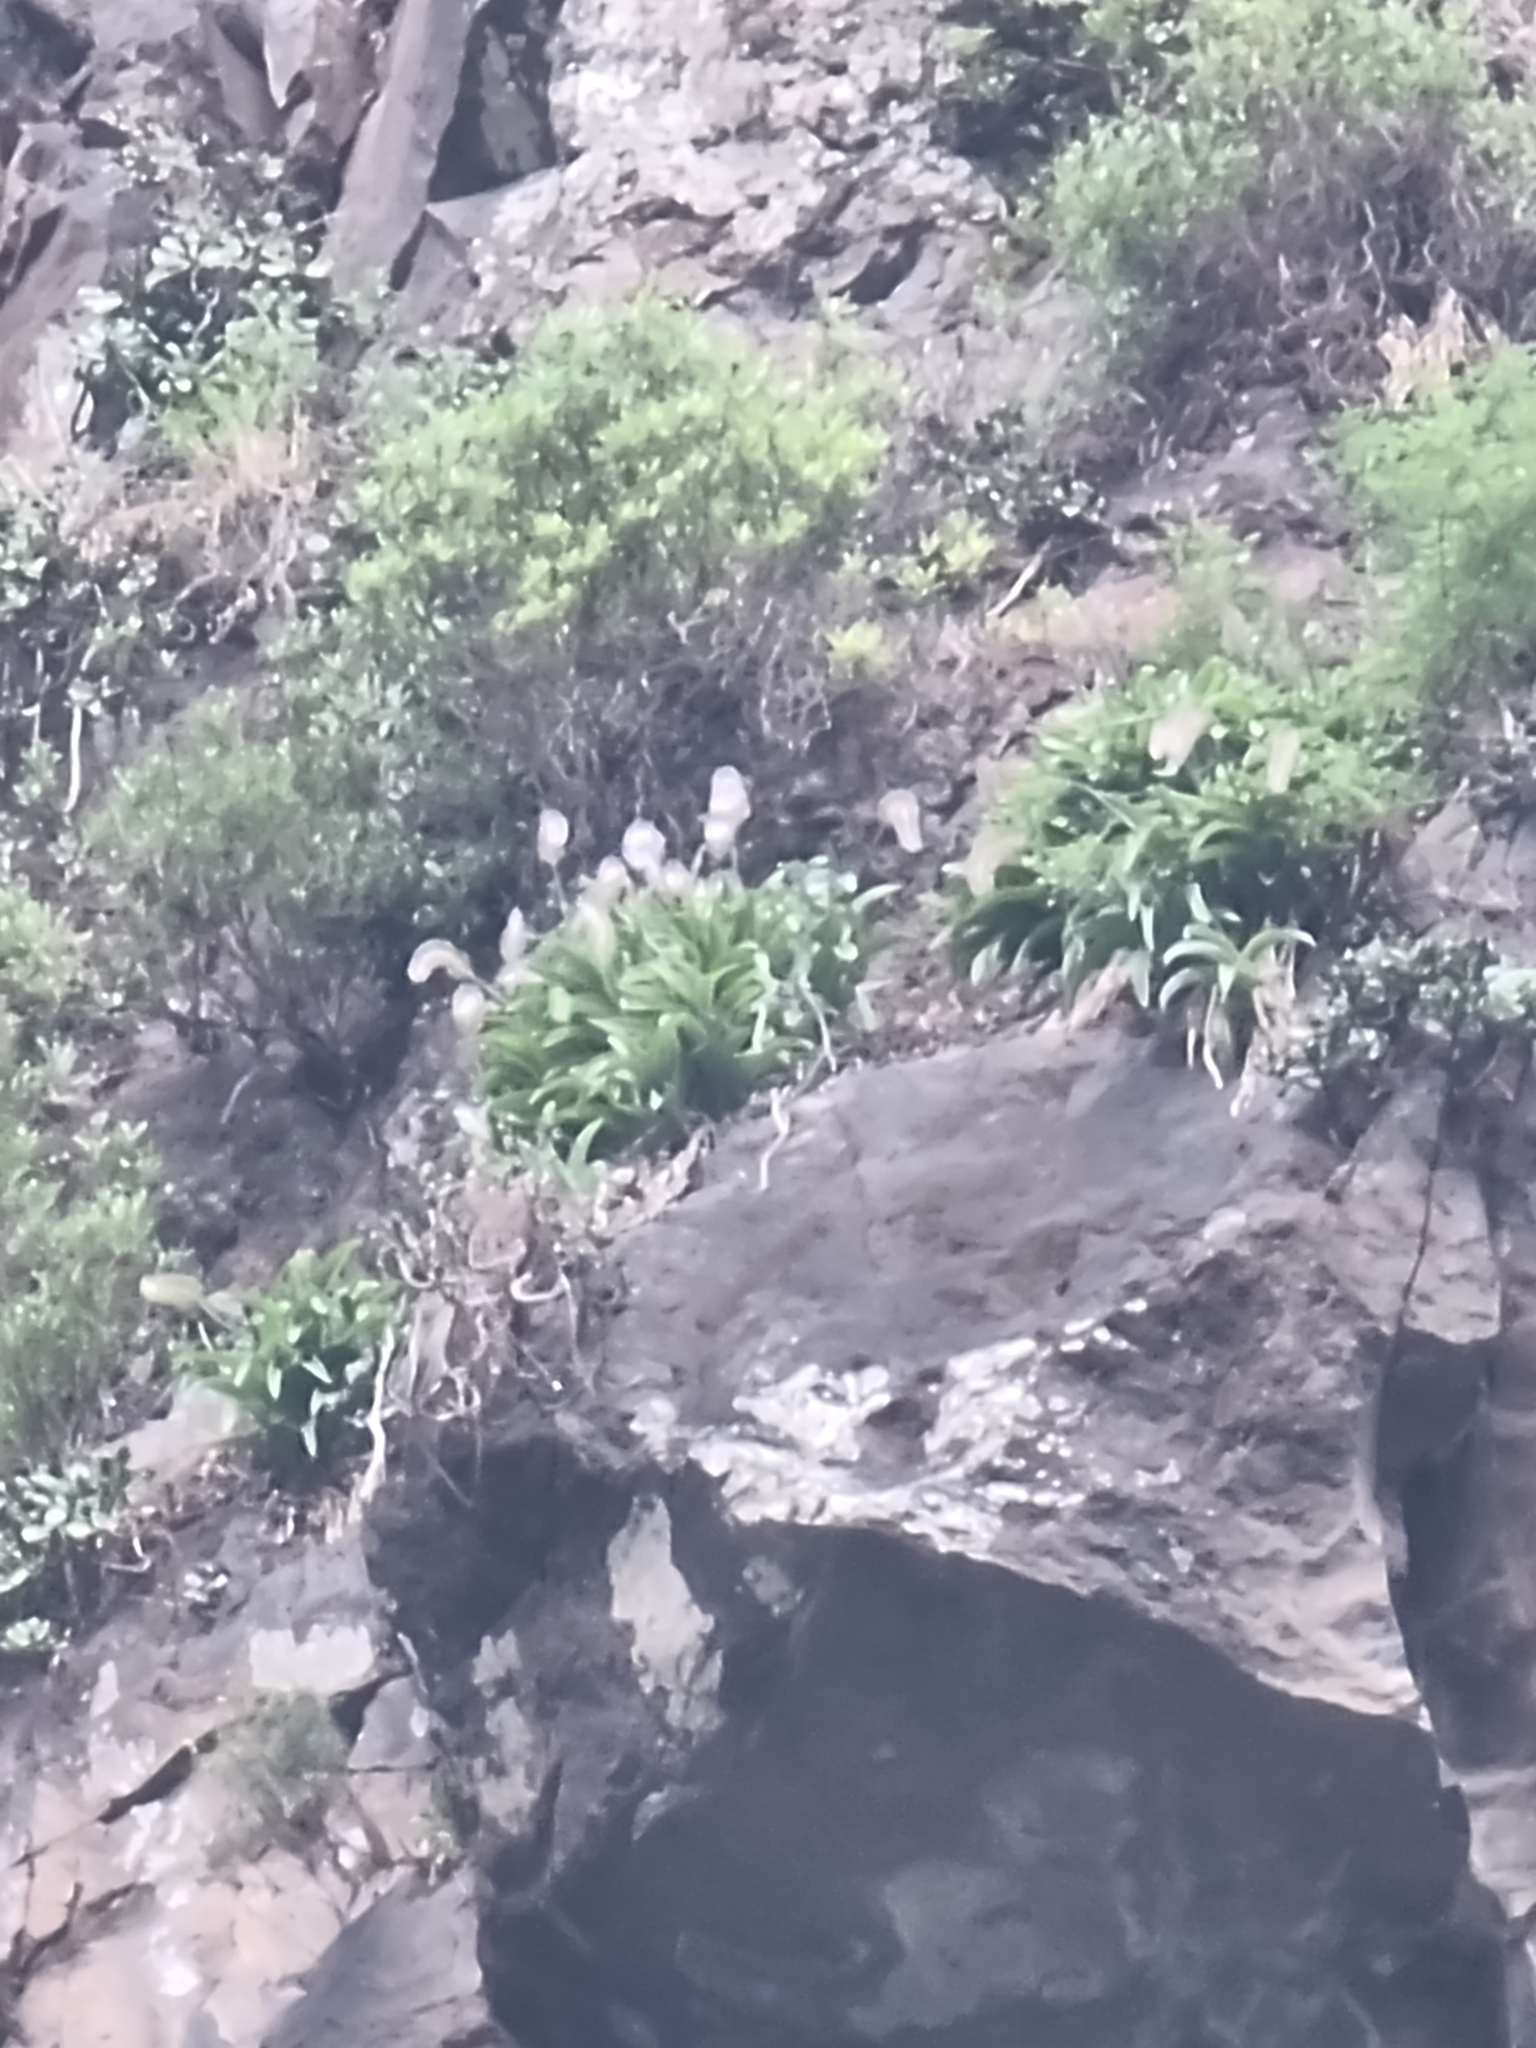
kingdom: Plantae
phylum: Tracheophyta
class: Liliopsida
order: Asparagales
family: Asparagaceae
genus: Scilla
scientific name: Scilla madeirensis
